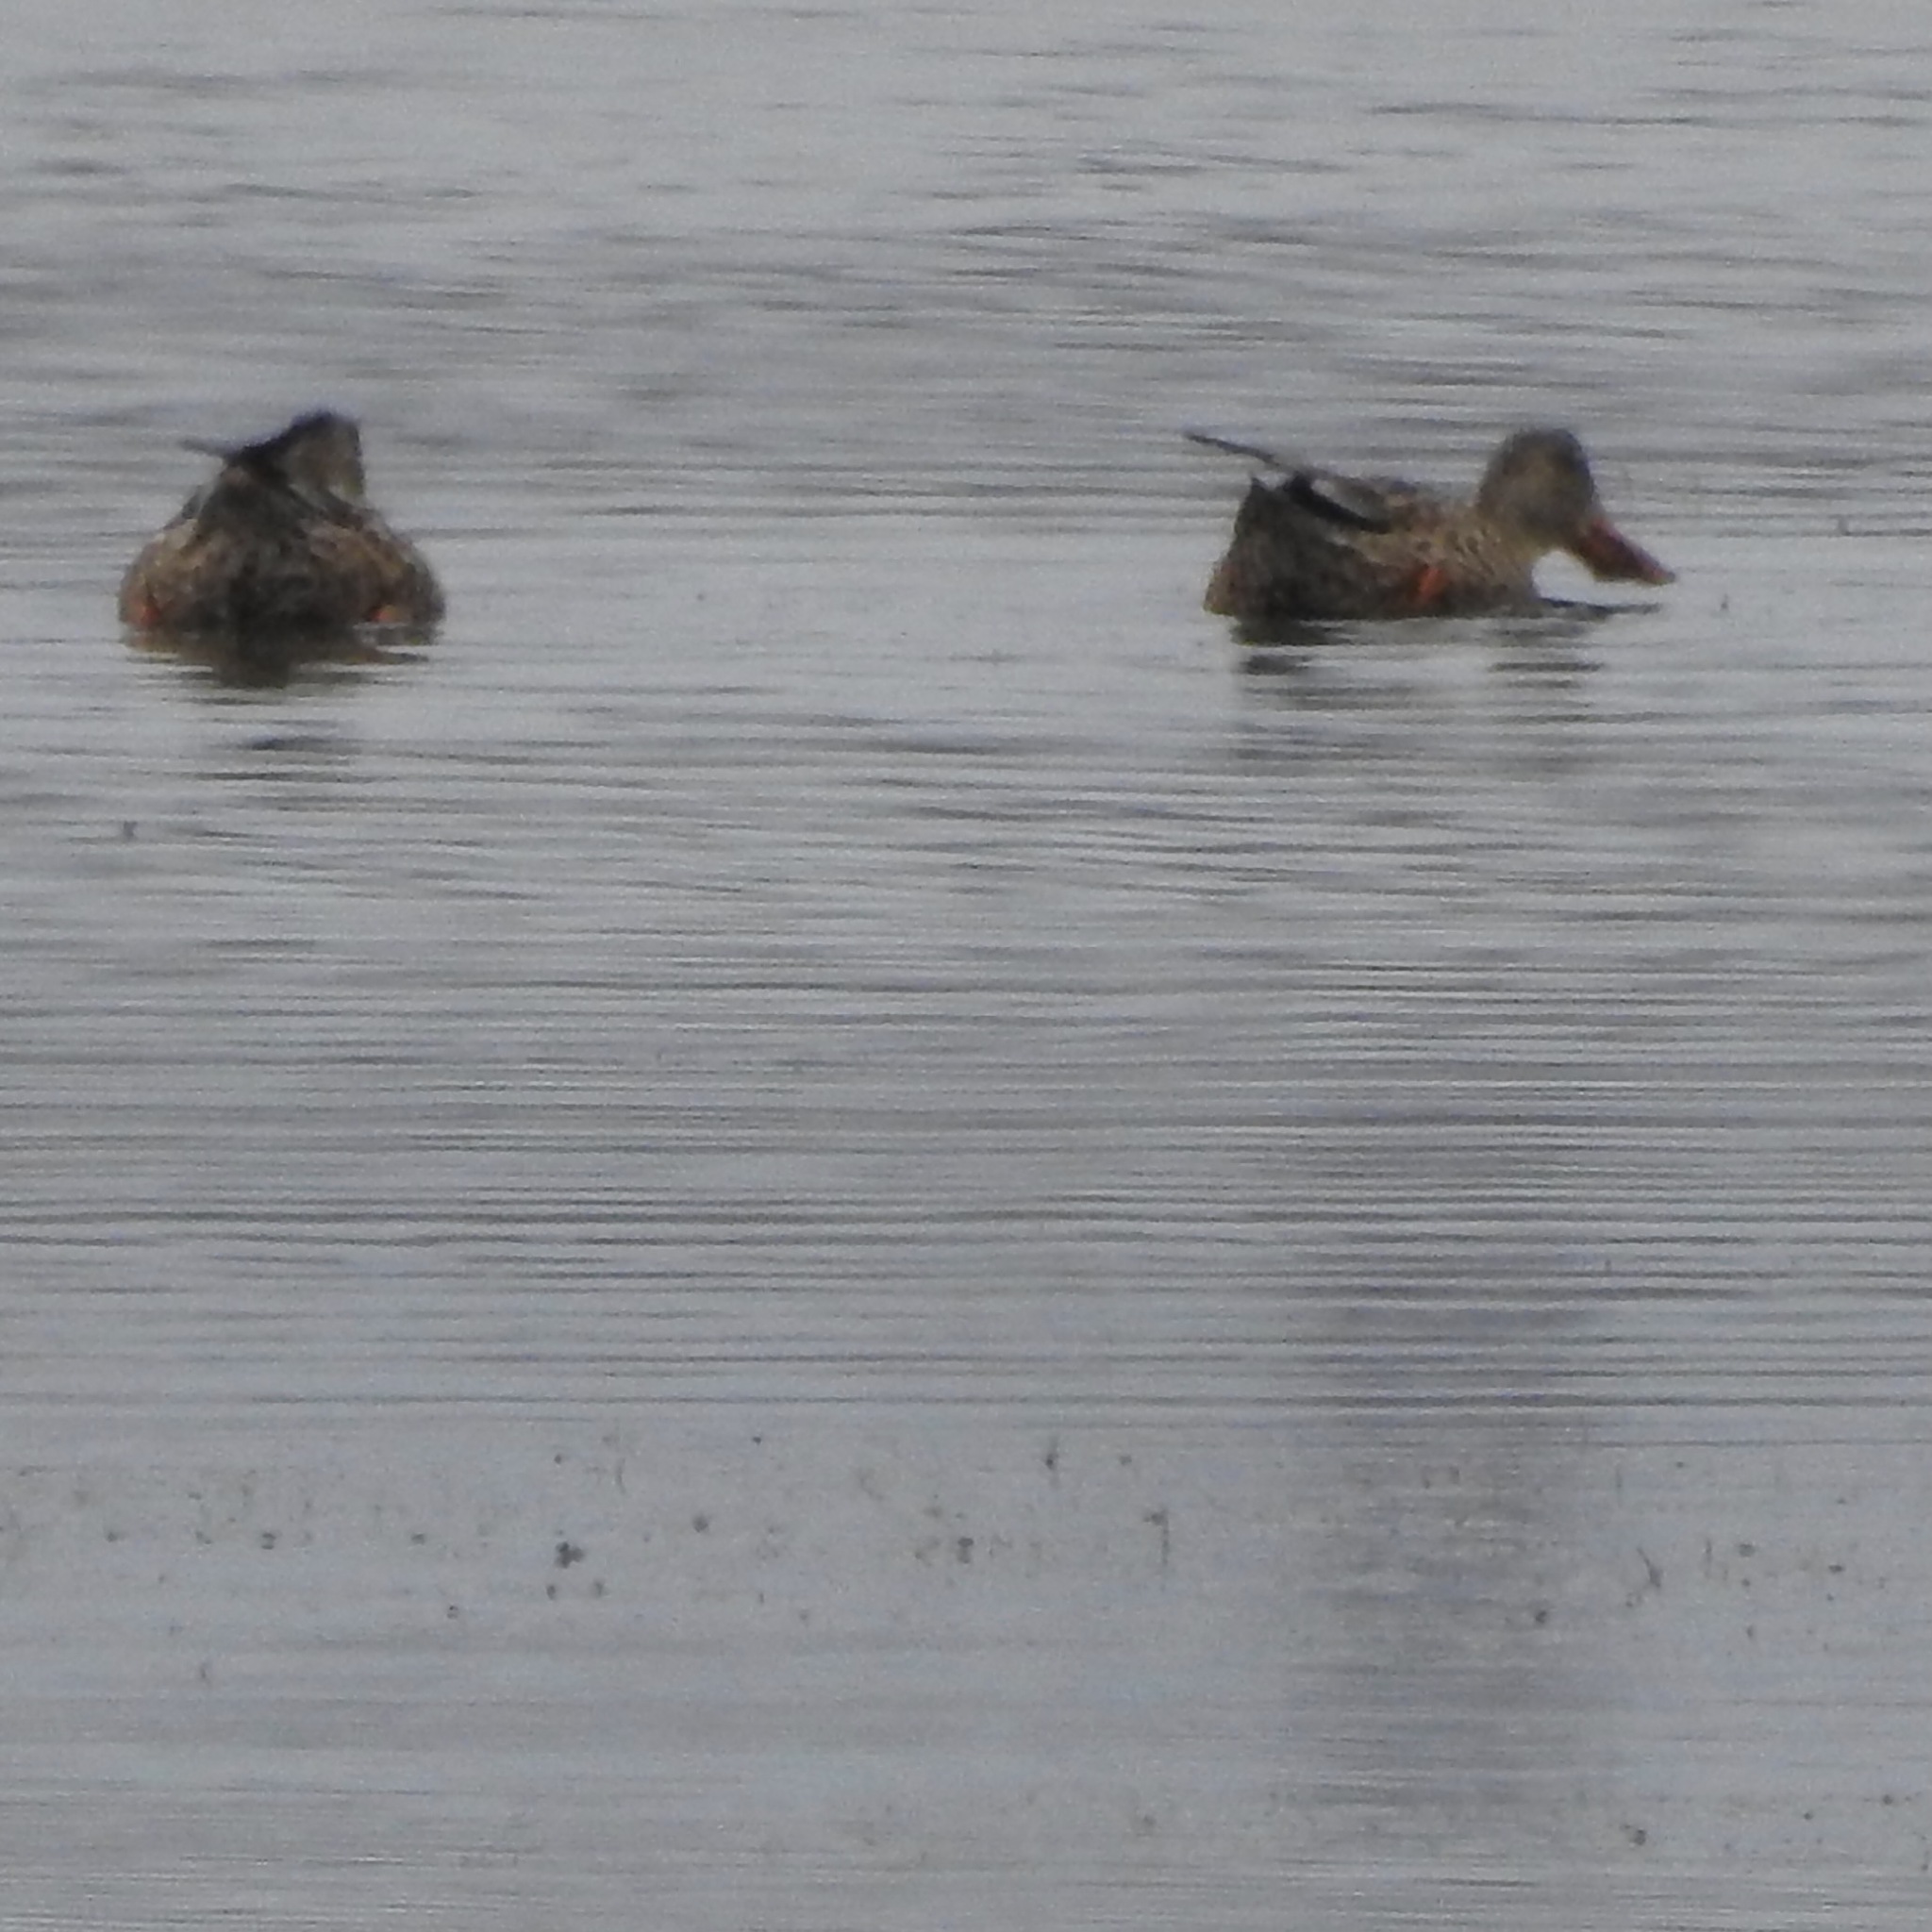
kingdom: Animalia
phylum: Chordata
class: Aves
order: Anseriformes
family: Anatidae
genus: Spatula
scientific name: Spatula clypeata
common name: Northern shoveler
